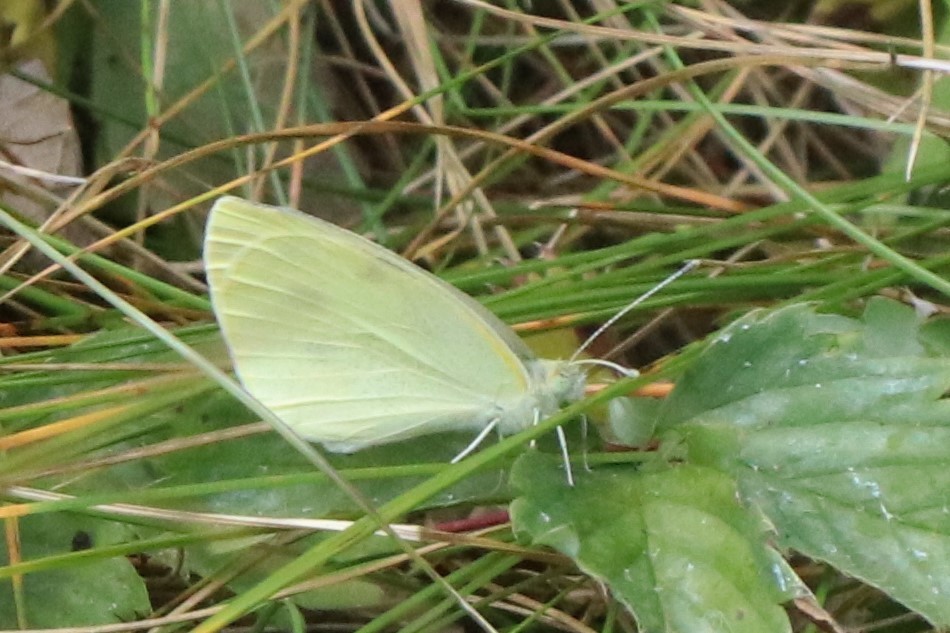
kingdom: Animalia
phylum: Arthropoda
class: Insecta
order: Lepidoptera
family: Pieridae
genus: Pieris
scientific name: Pieris rapae
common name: Small white
